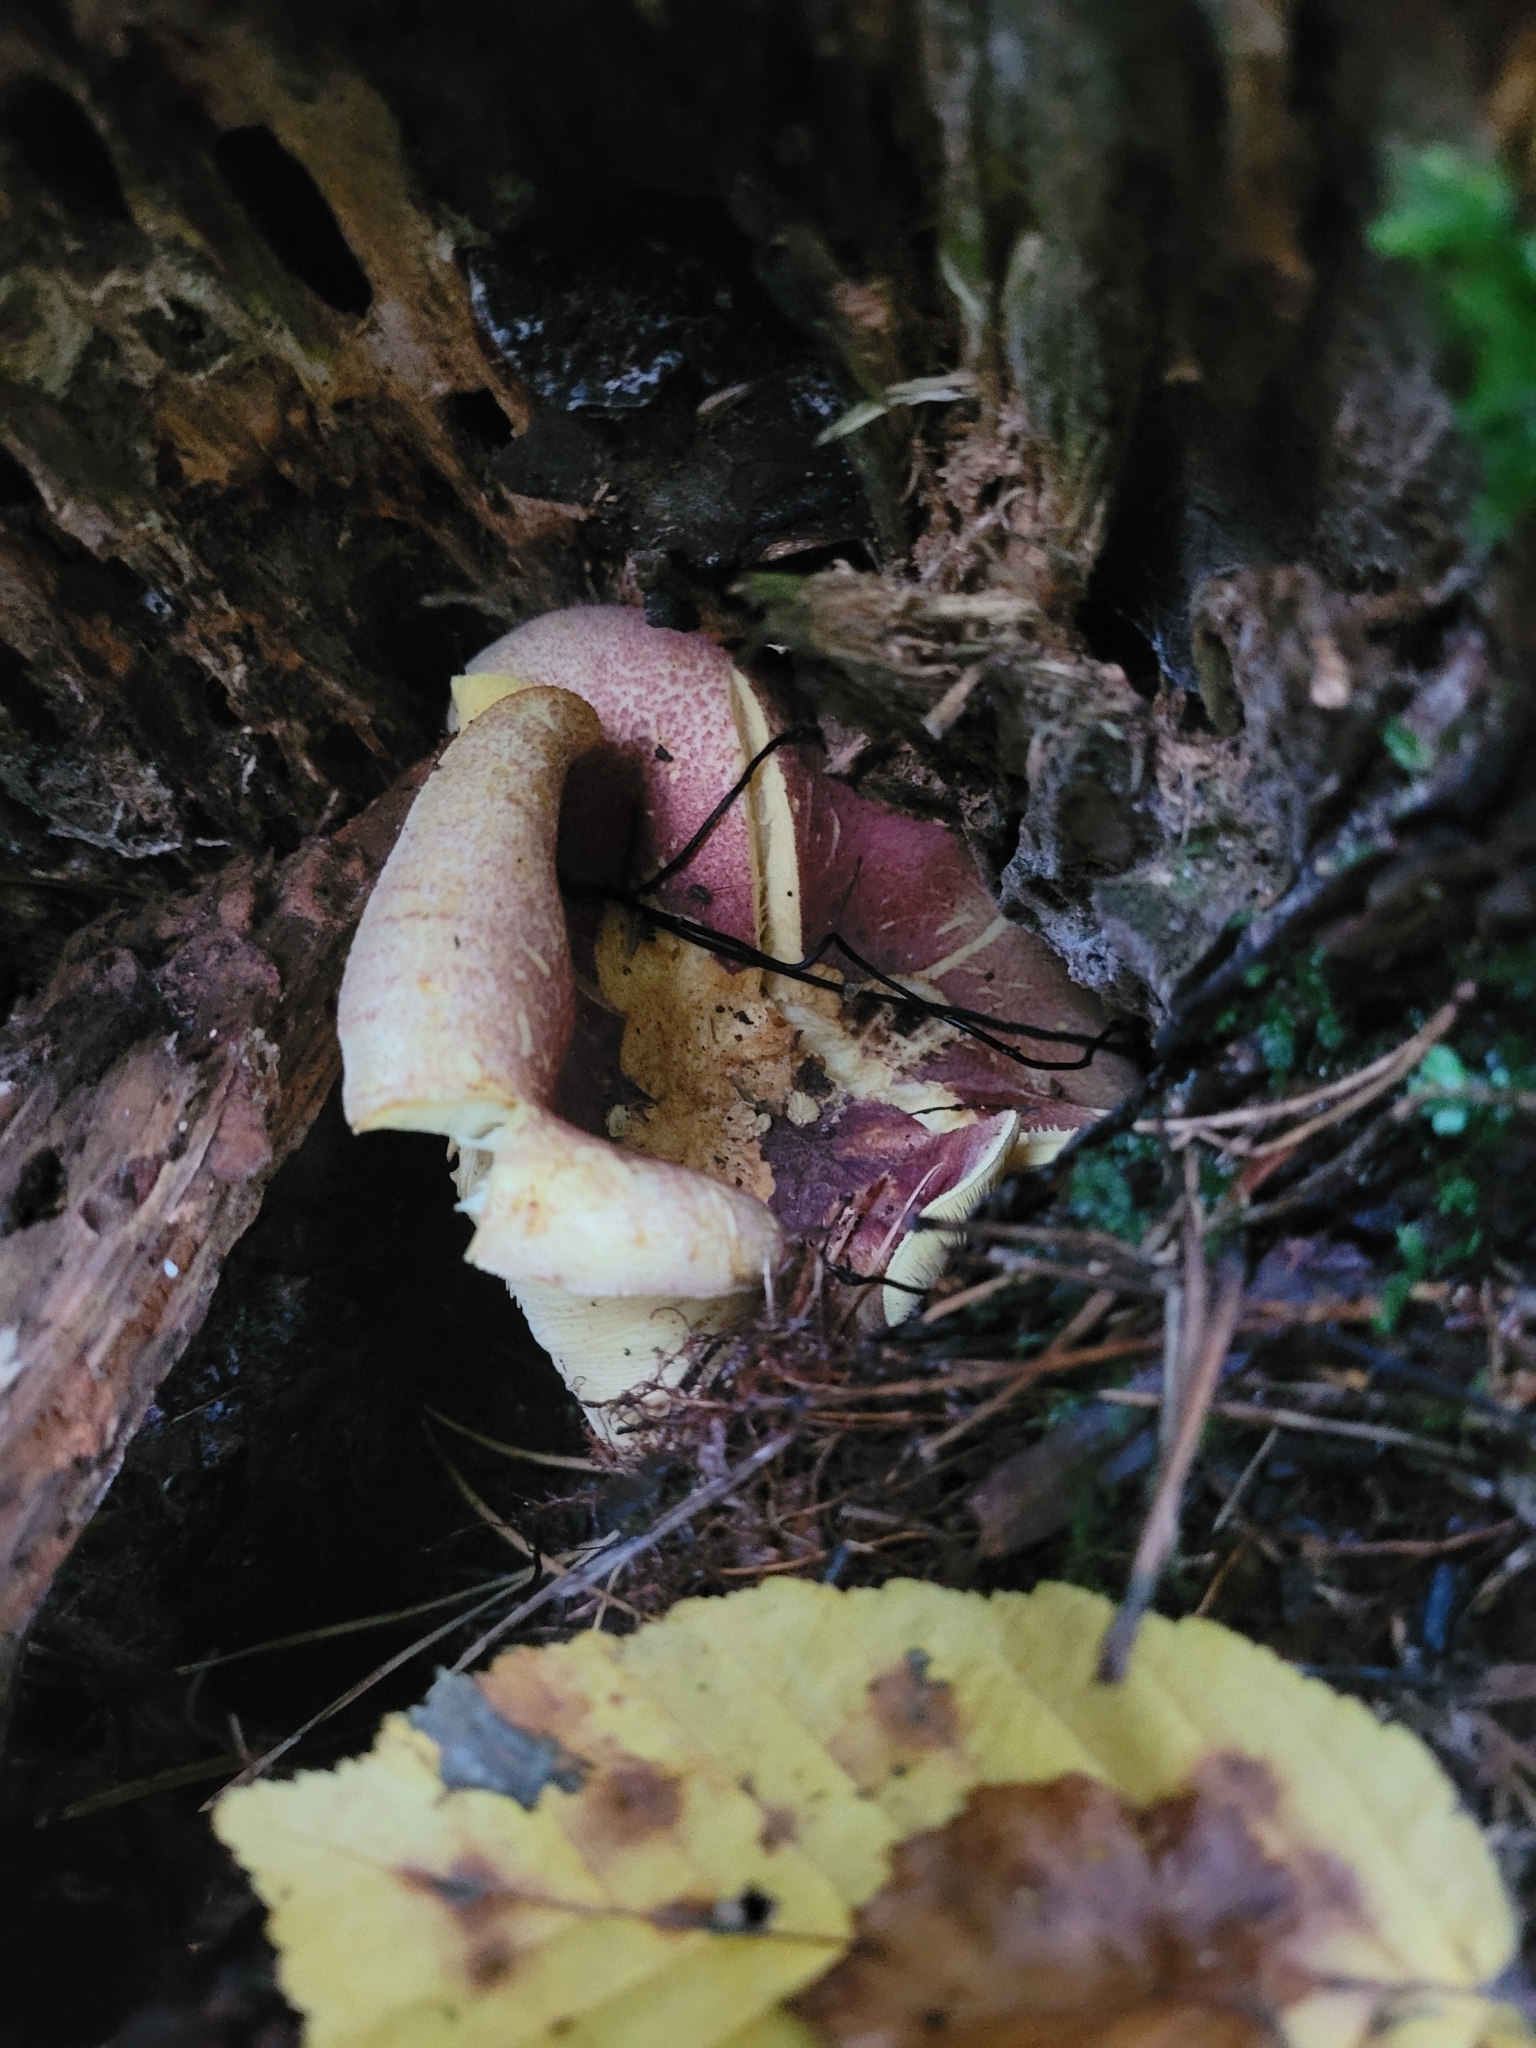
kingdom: Fungi
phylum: Basidiomycota
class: Agaricomycetes
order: Agaricales
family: Tricholomataceae
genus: Tricholomopsis
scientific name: Tricholomopsis rutilans
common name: Plums and custard
